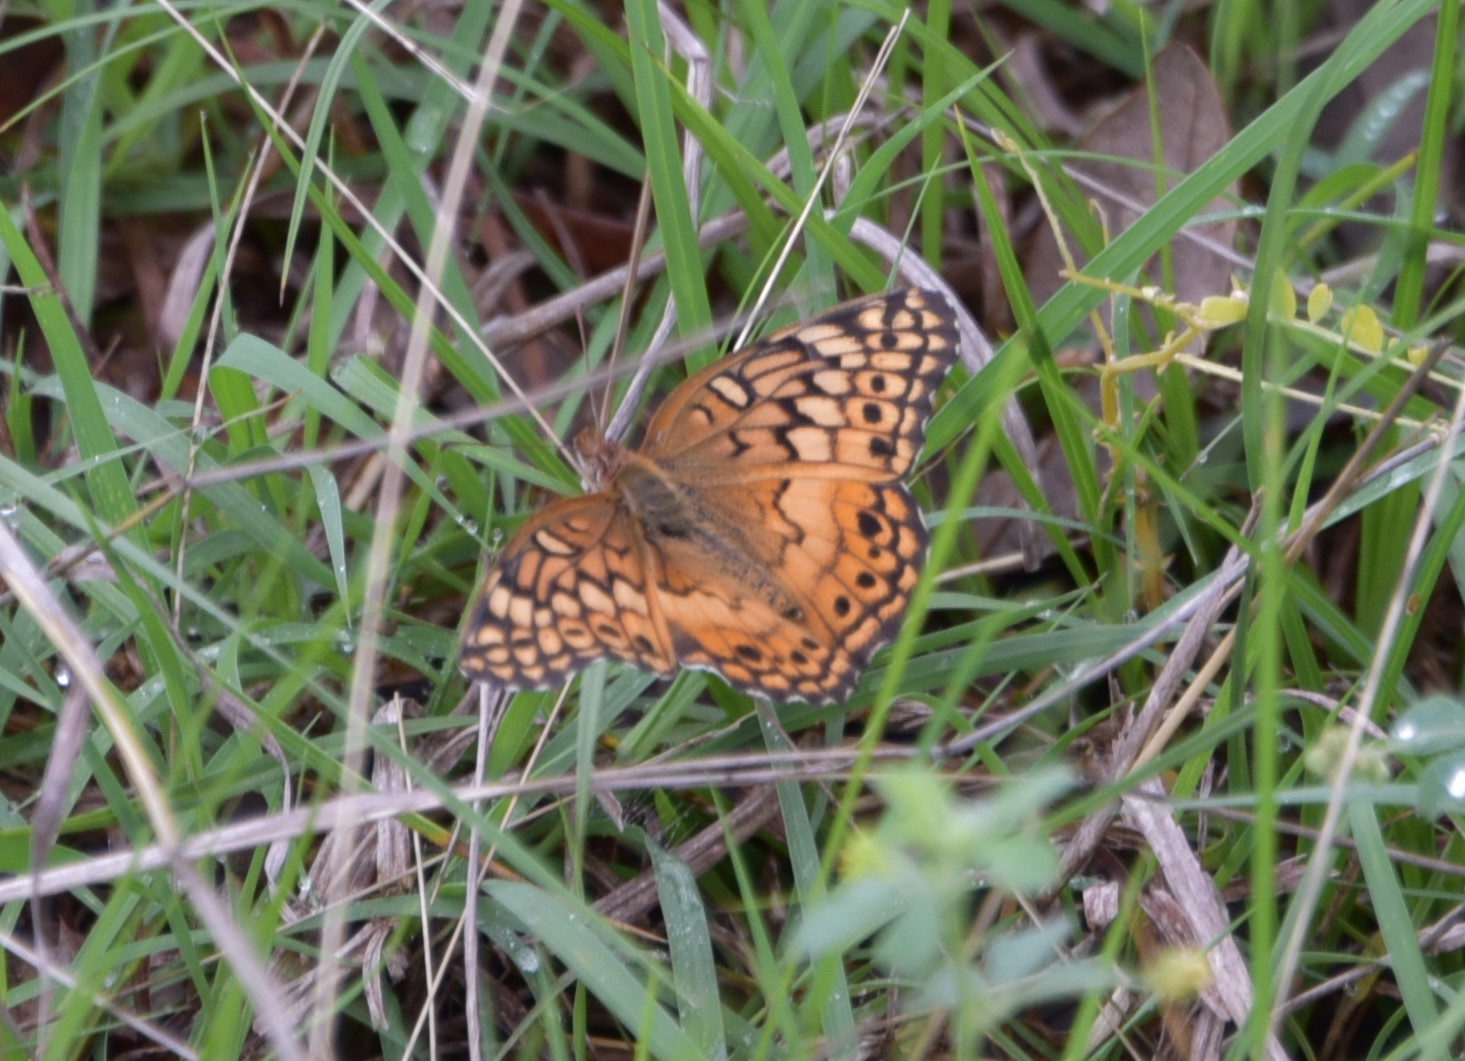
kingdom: Animalia
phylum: Arthropoda
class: Insecta
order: Lepidoptera
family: Nymphalidae
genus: Euptoieta
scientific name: Euptoieta claudia
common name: Variegated fritillary
